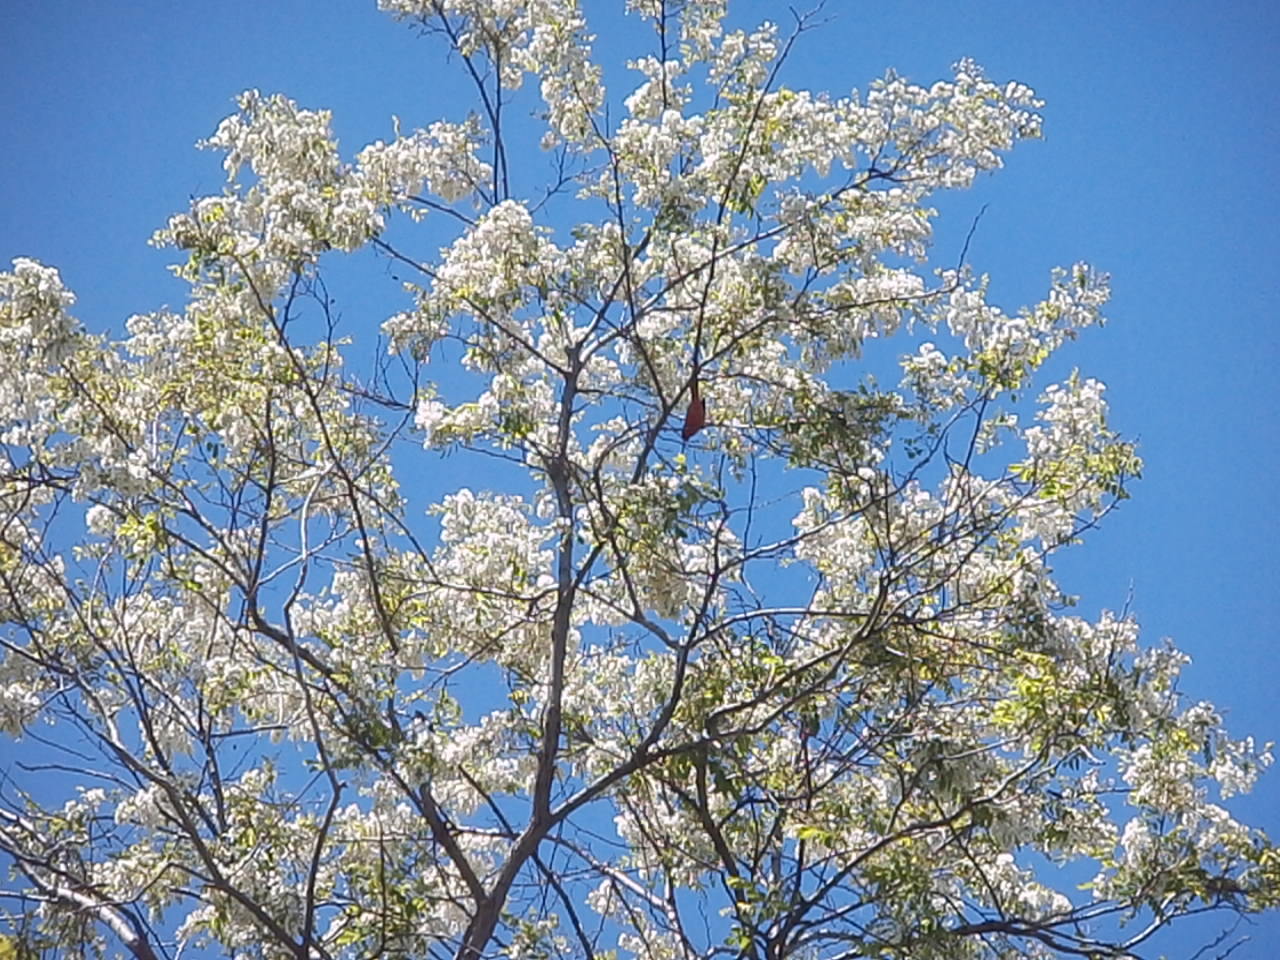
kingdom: Animalia
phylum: Chordata
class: Aves
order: Passeriformes
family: Cardinalidae
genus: Cardinalis
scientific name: Cardinalis cardinalis
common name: Northern cardinal
